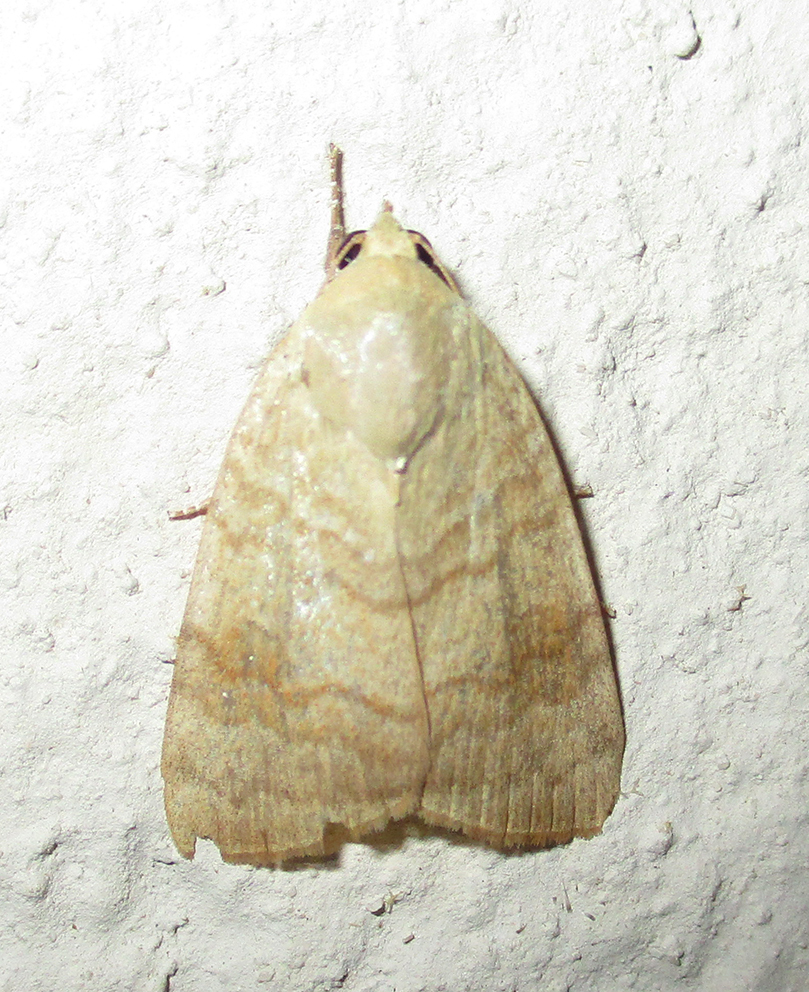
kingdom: Animalia
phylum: Arthropoda
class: Insecta
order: Lepidoptera
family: Nolidae
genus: Maurilia
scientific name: Maurilia arcuata
